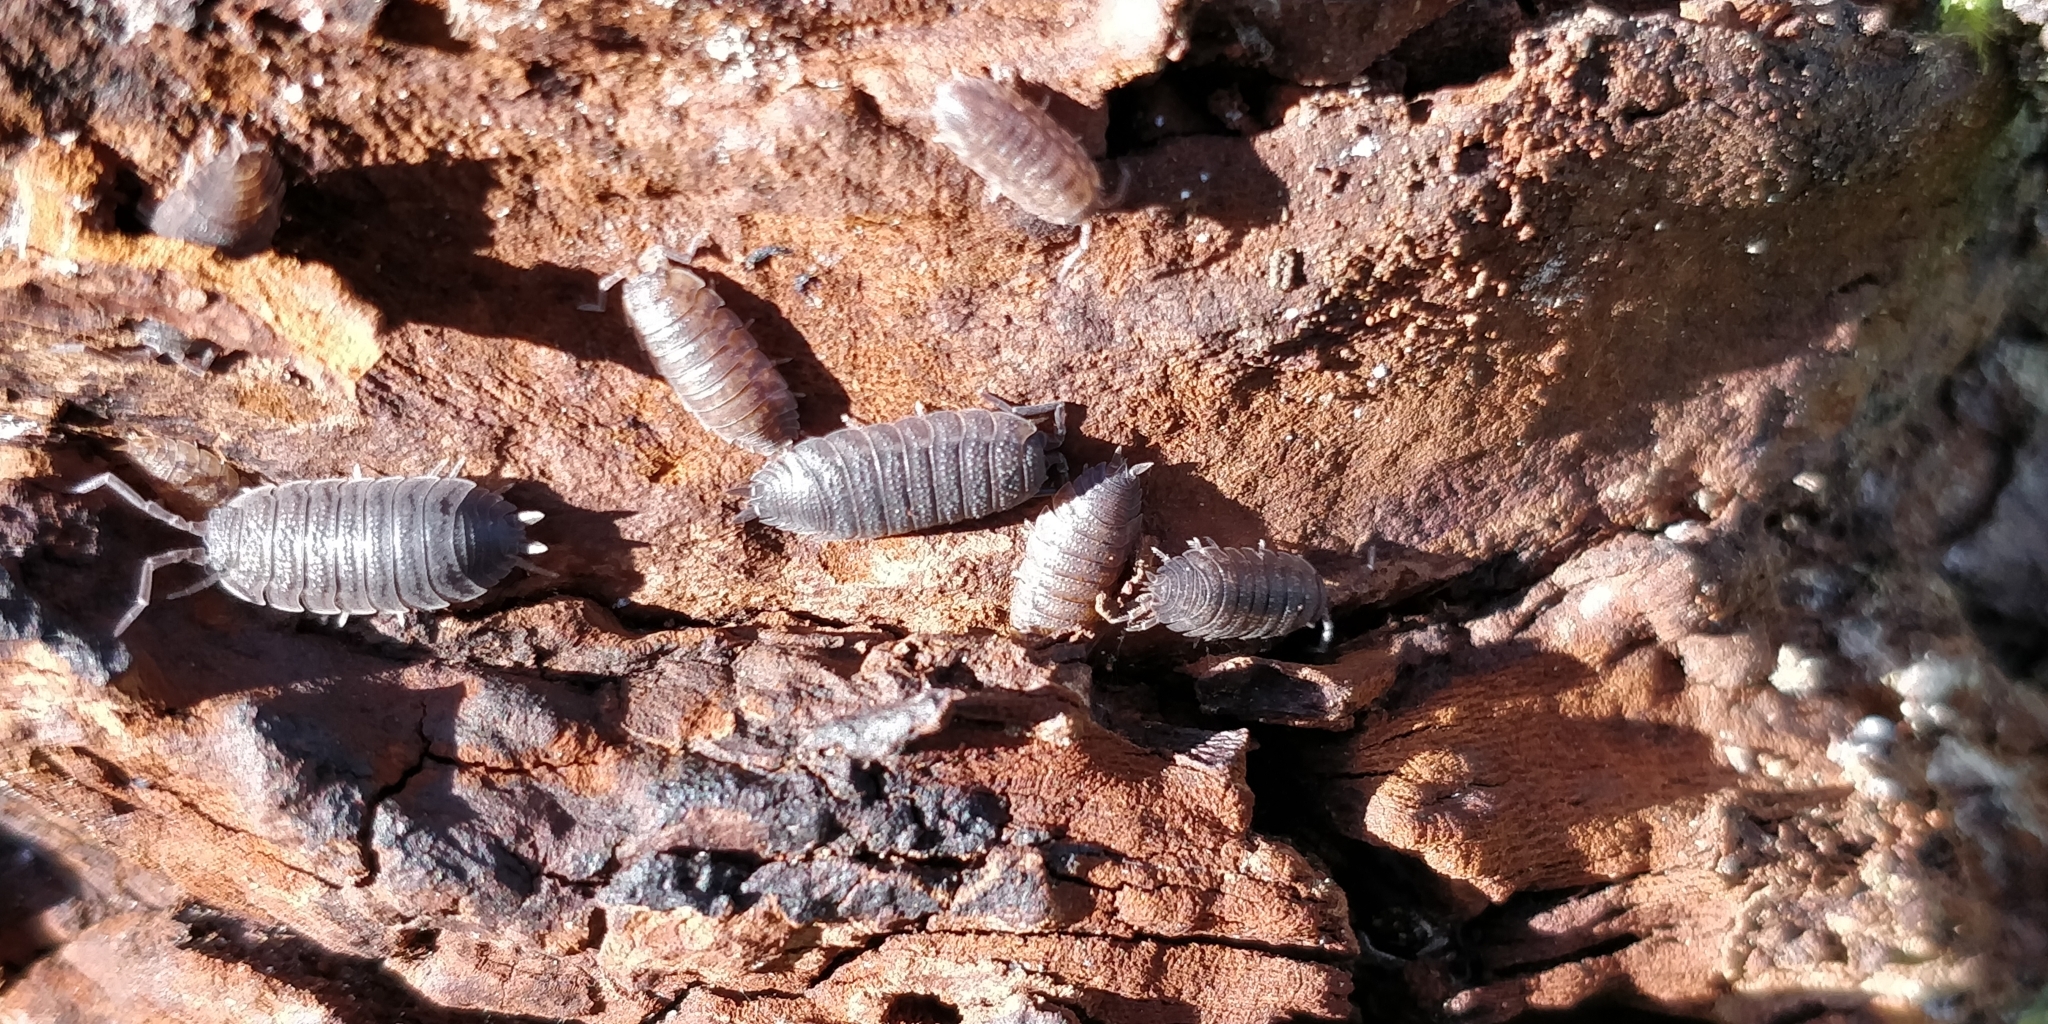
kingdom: Animalia
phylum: Arthropoda
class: Malacostraca
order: Isopoda
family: Porcellionidae
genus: Porcellio
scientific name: Porcellio scaber
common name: Common rough woodlouse
